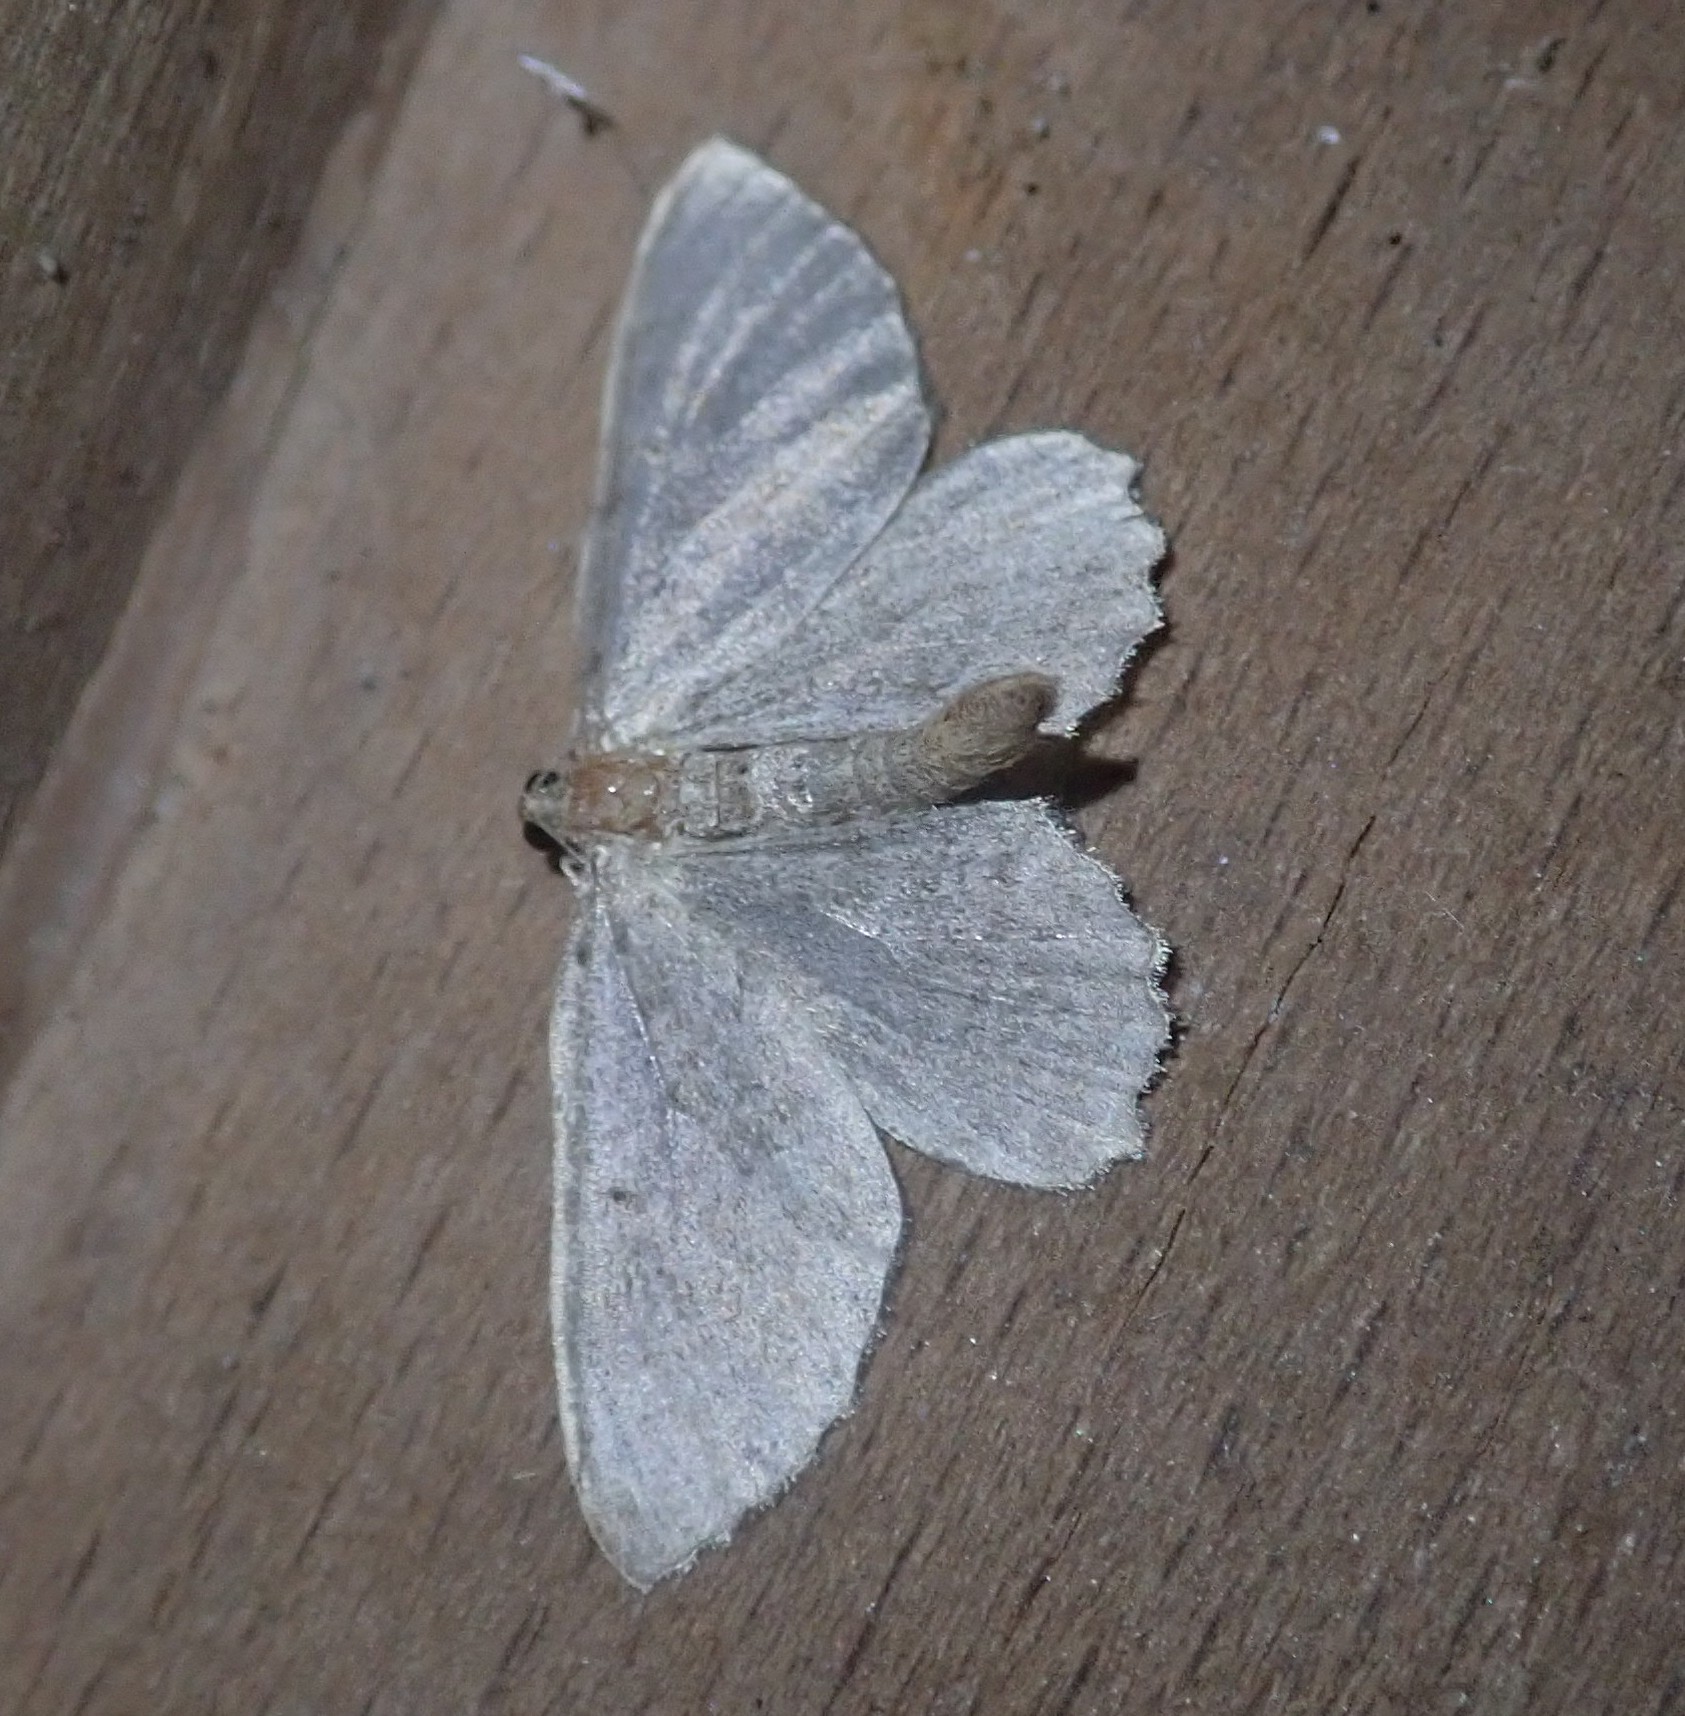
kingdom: Animalia
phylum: Arthropoda
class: Insecta
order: Lepidoptera
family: Geometridae
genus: Philereme
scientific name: Philereme vetulata
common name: Brown scallop
